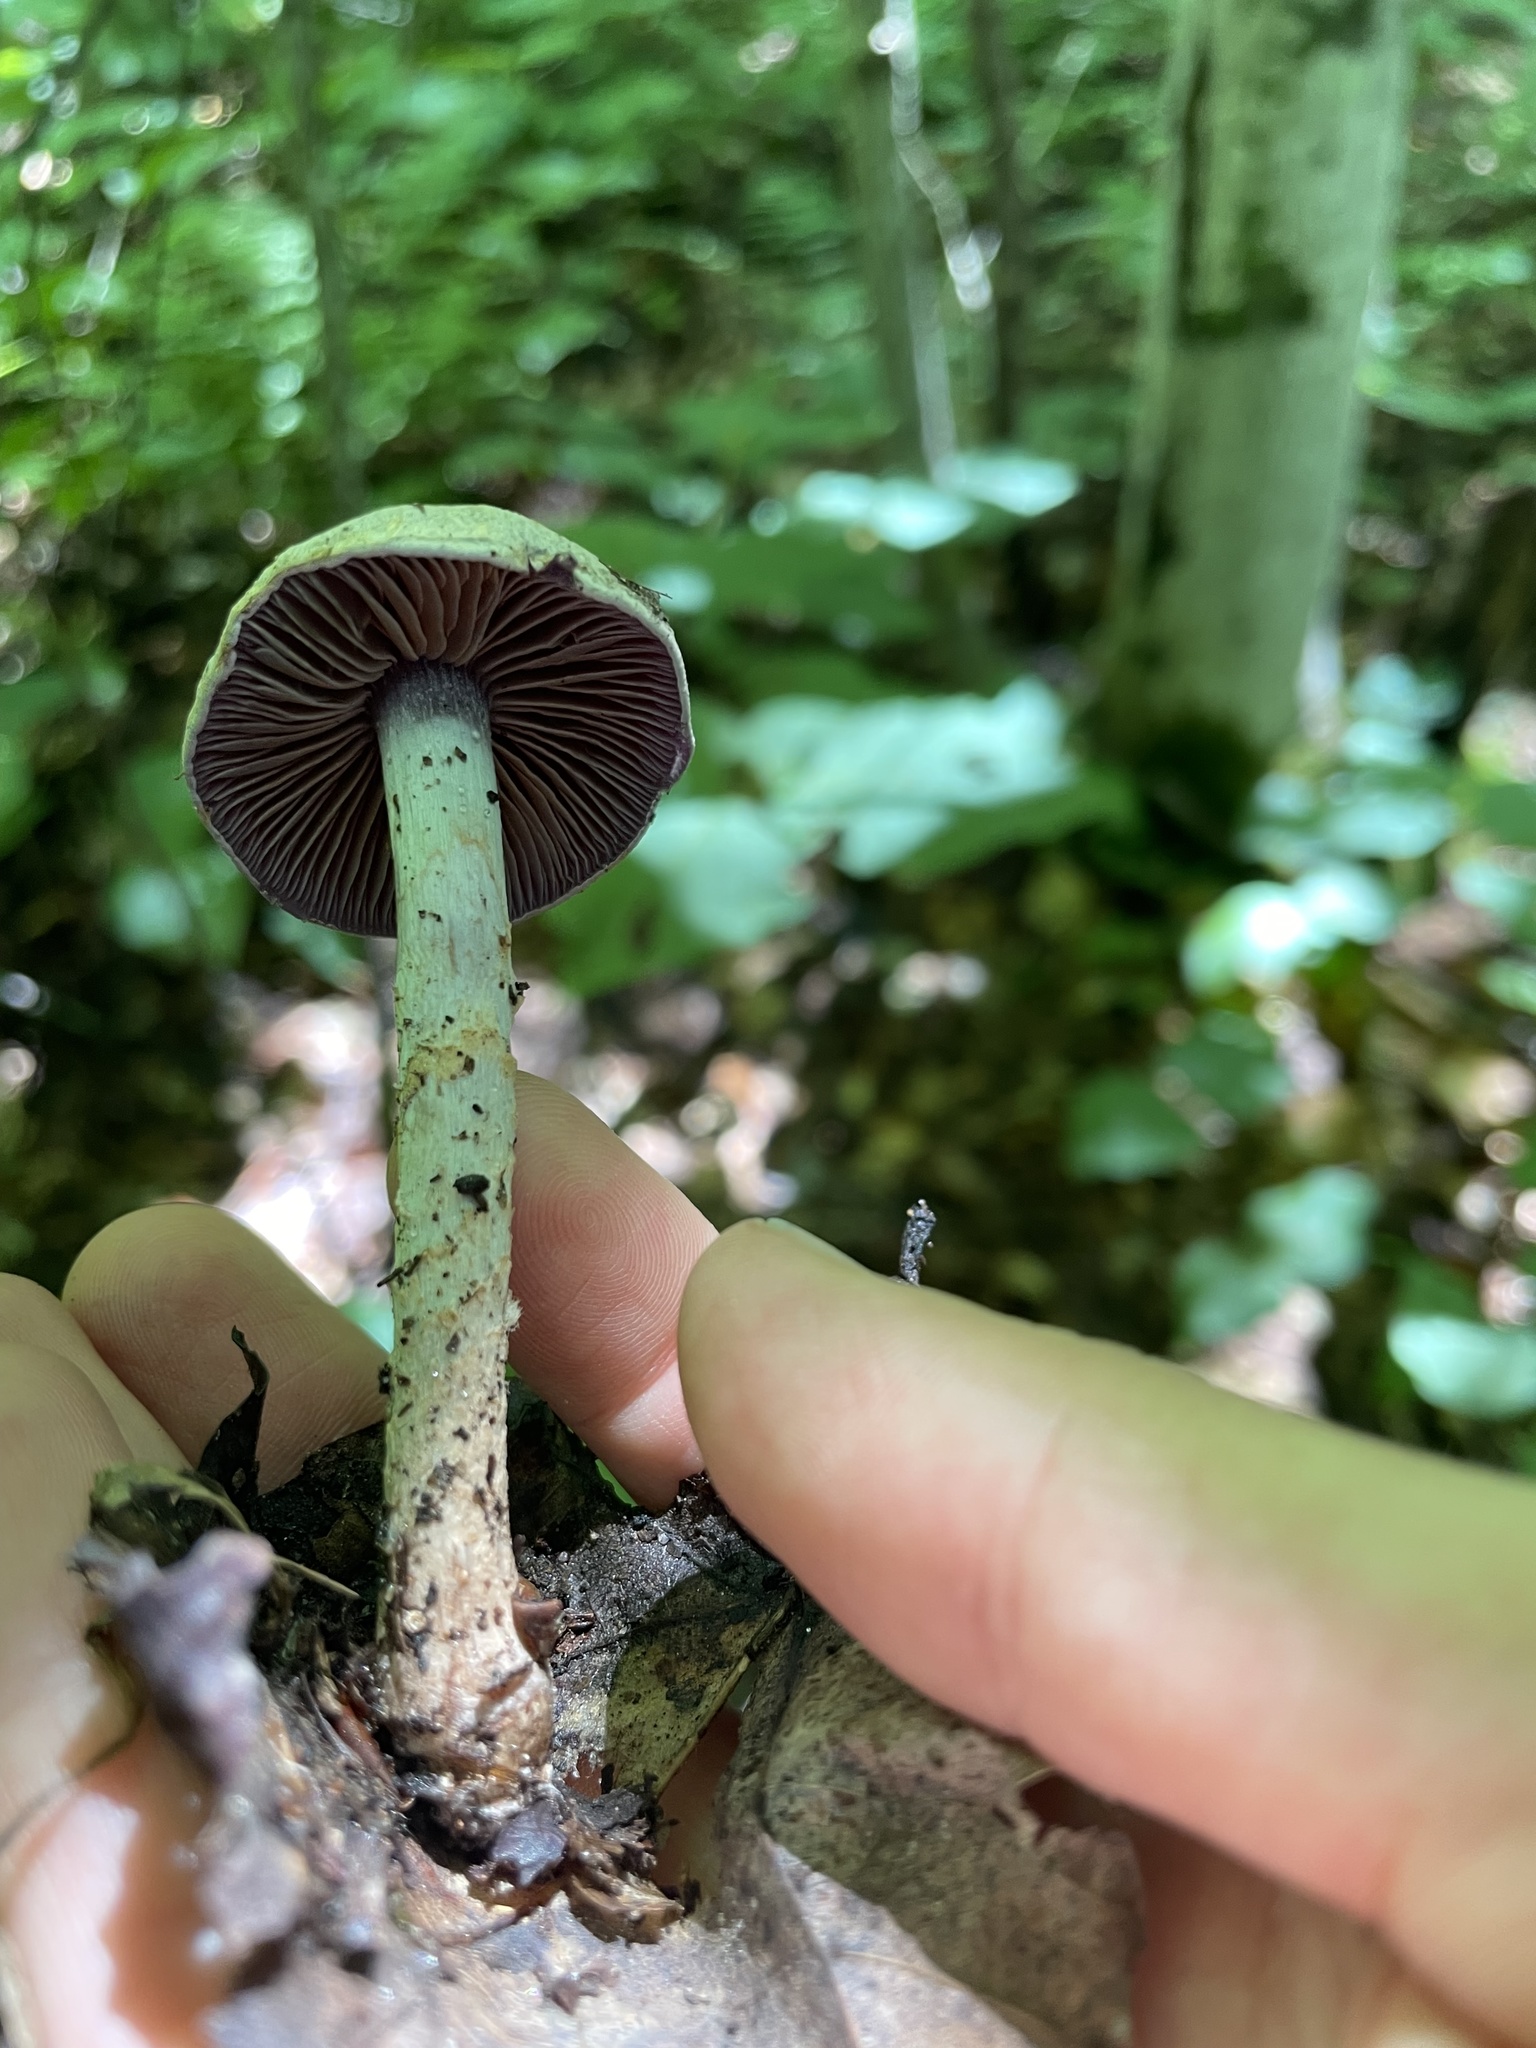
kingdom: Fungi
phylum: Basidiomycota
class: Agaricomycetes
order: Agaricales
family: Hydnangiaceae
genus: Laccaria
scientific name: Laccaria ochropurpurea
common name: Purple laccaria
